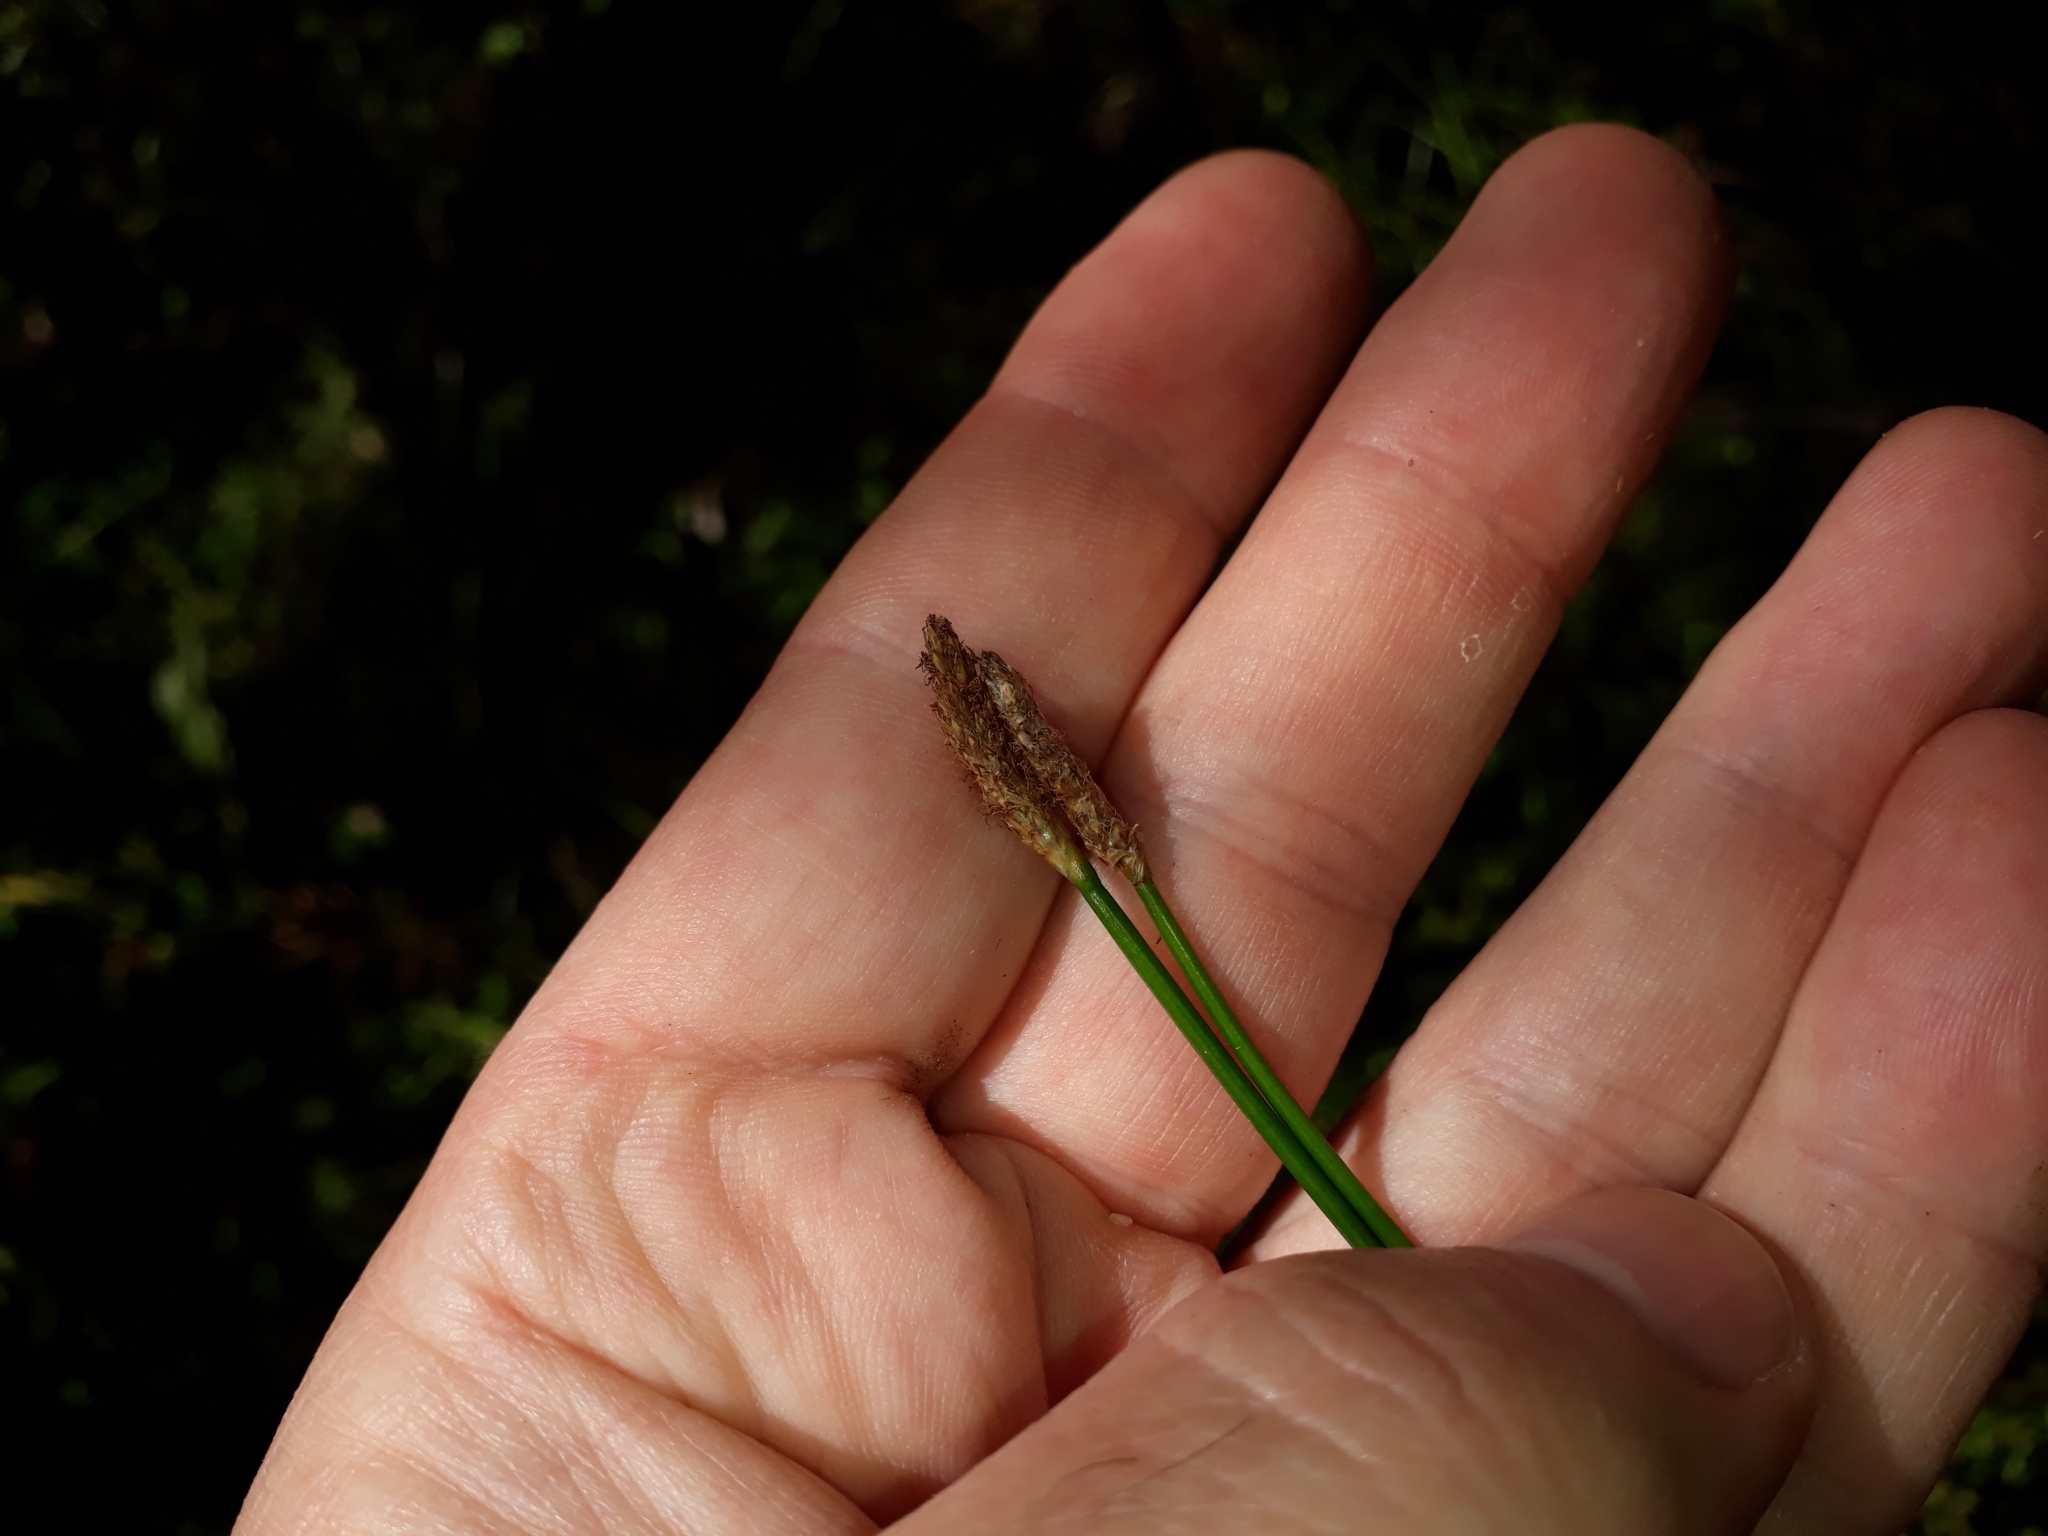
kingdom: Plantae
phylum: Tracheophyta
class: Liliopsida
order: Poales
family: Cyperaceae
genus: Eleocharis
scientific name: Eleocharis acuta
